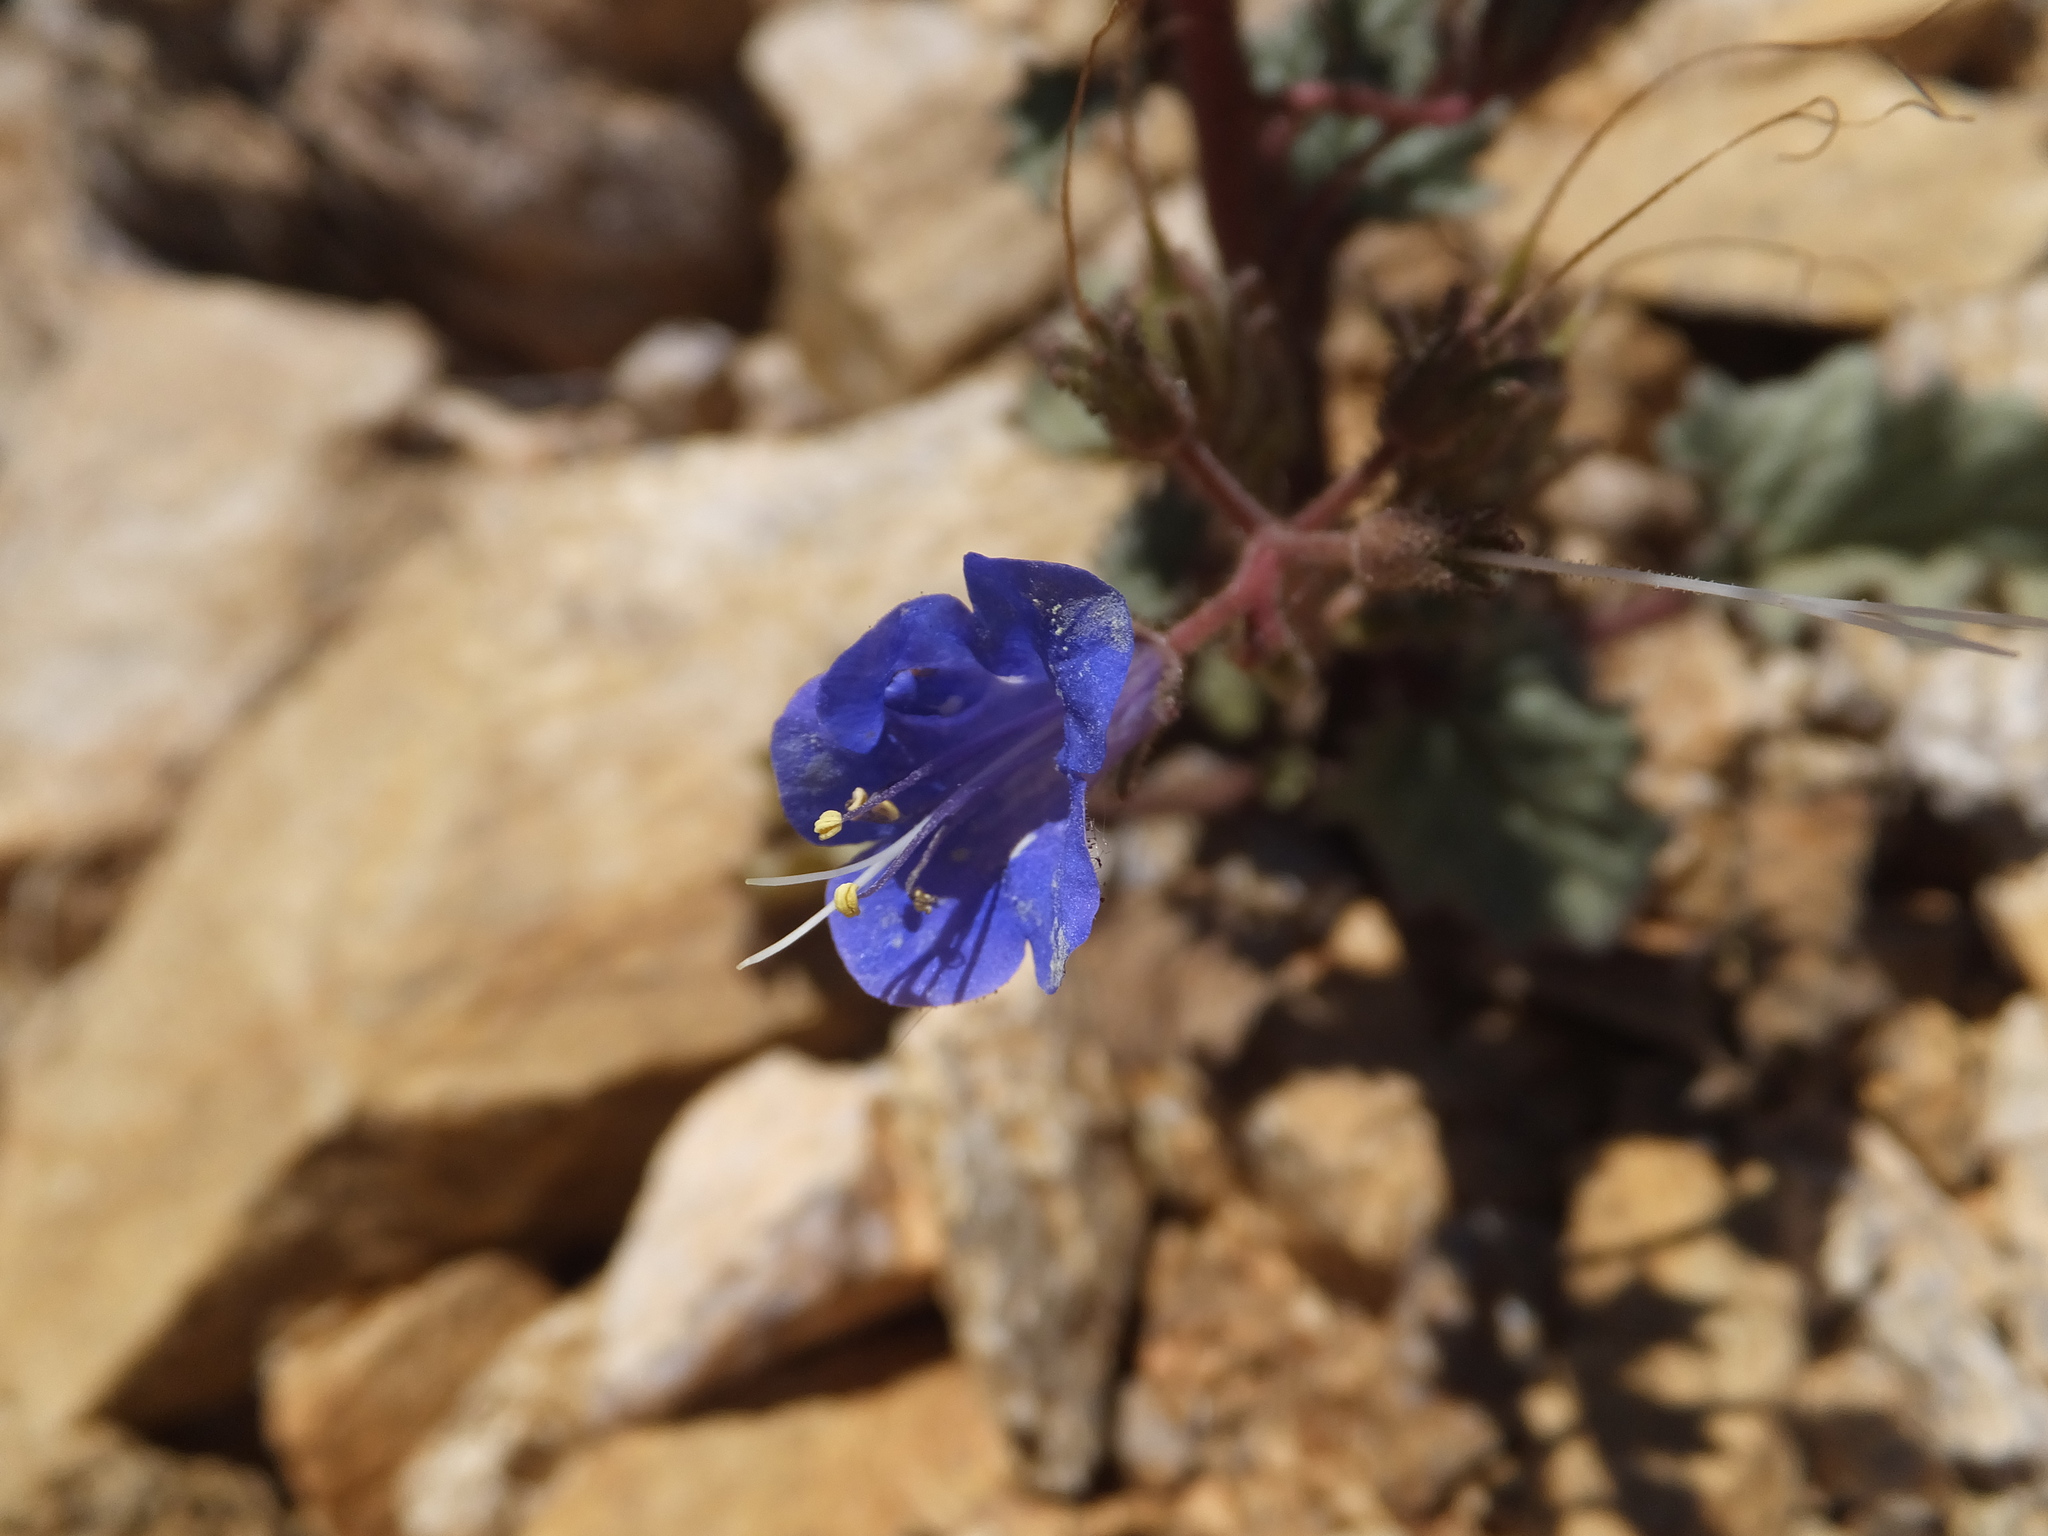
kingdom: Plantae
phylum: Tracheophyta
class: Magnoliopsida
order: Boraginales
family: Hydrophyllaceae
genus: Phacelia
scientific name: Phacelia campanularia
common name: California bluebell
